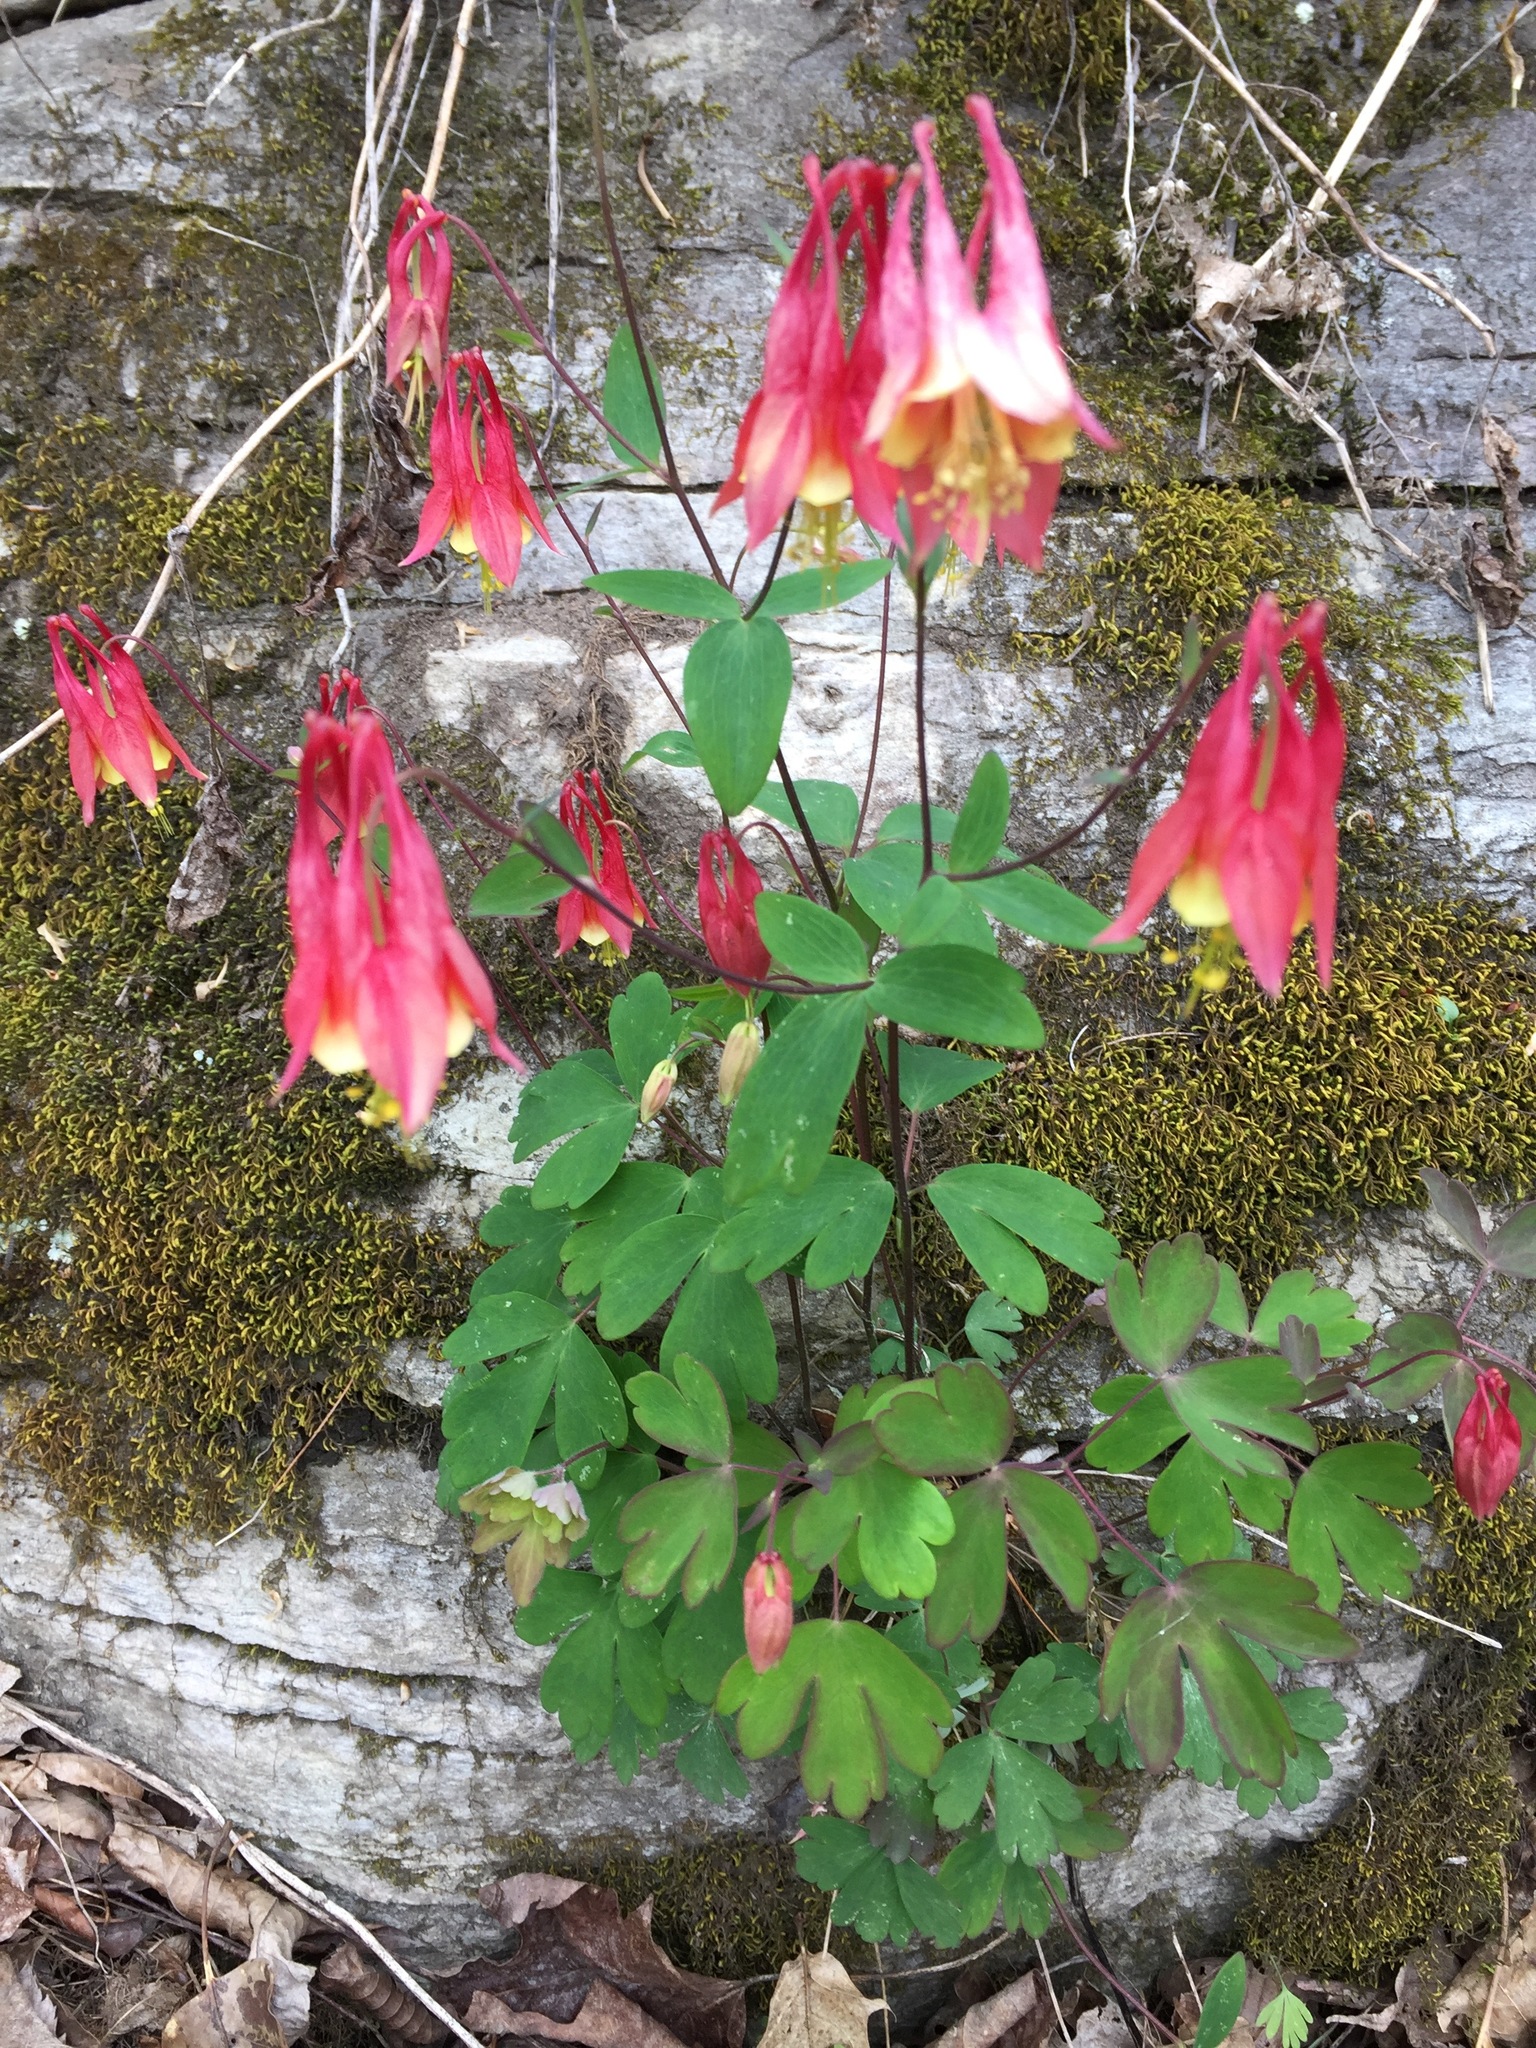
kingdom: Plantae
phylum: Tracheophyta
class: Magnoliopsida
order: Ranunculales
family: Ranunculaceae
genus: Aquilegia
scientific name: Aquilegia canadensis
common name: American columbine
